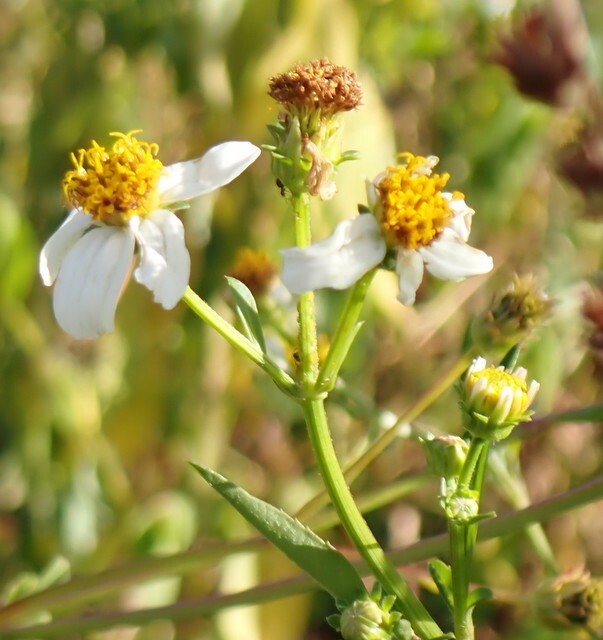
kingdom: Plantae
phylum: Tracheophyta
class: Magnoliopsida
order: Asterales
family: Asteraceae
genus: Bidens
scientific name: Bidens alba
